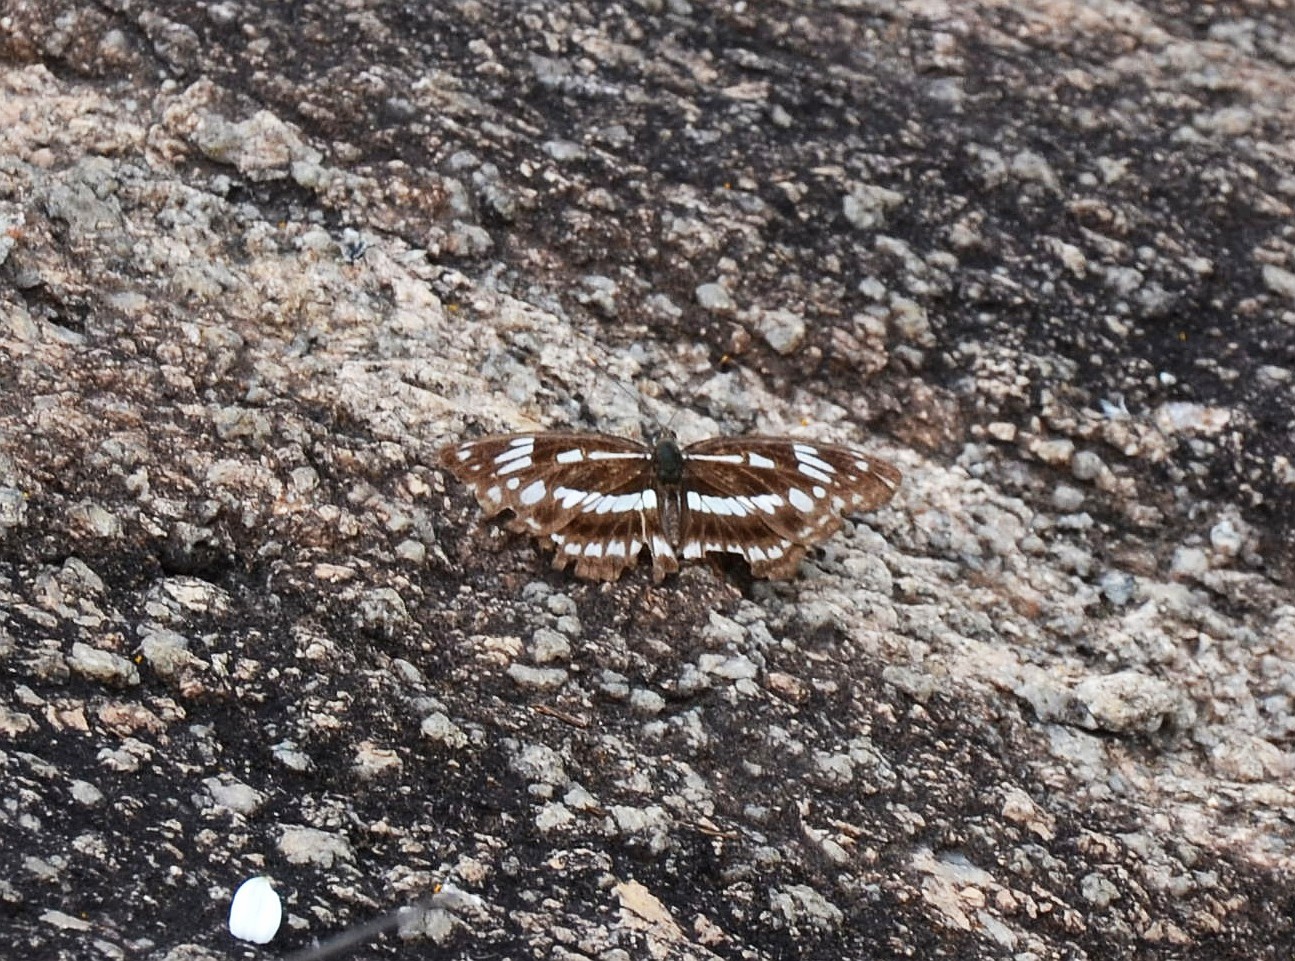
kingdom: Animalia
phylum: Arthropoda
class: Insecta
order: Lepidoptera
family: Nymphalidae
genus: Limenitis
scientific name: Limenitis sulpitia
